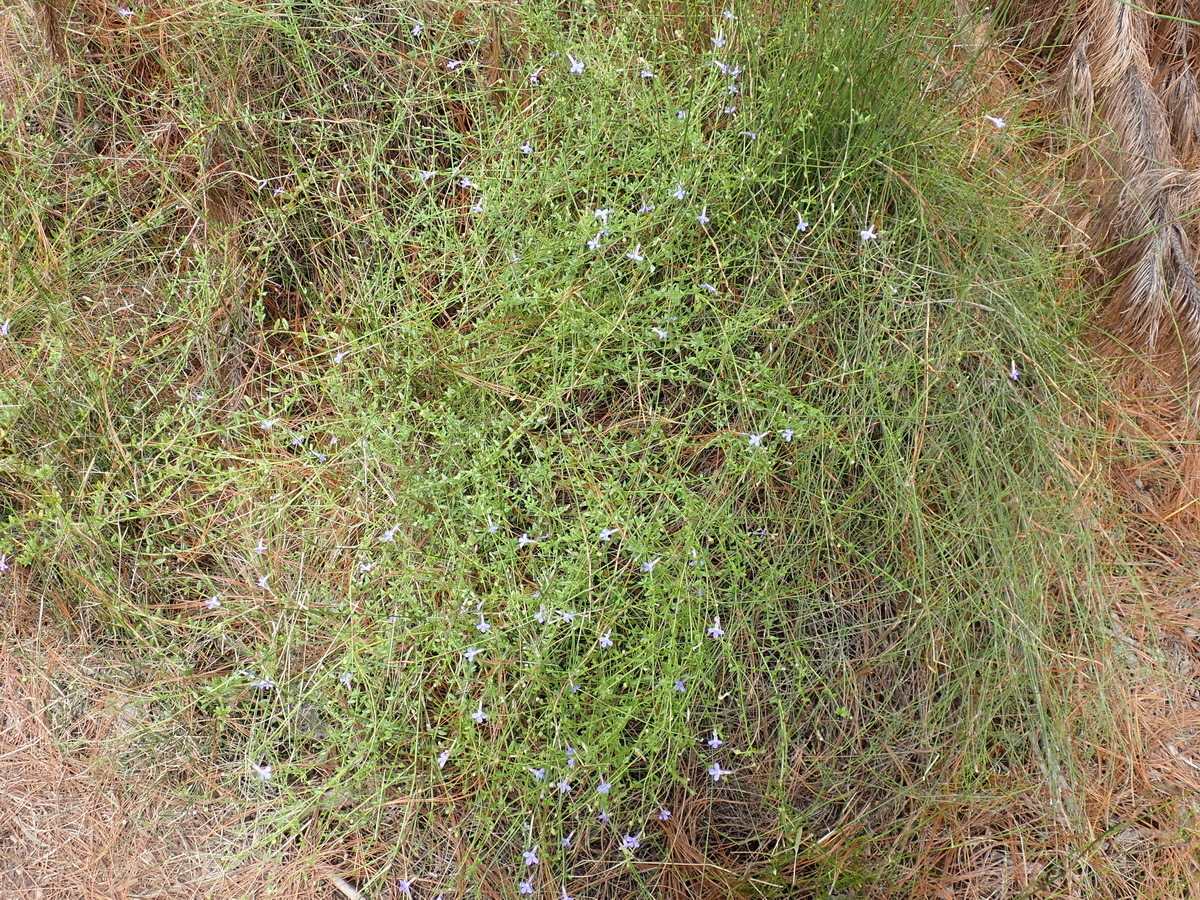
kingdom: Plantae
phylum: Tracheophyta
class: Magnoliopsida
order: Asterales
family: Campanulaceae
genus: Lobelia
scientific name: Lobelia neglecta
